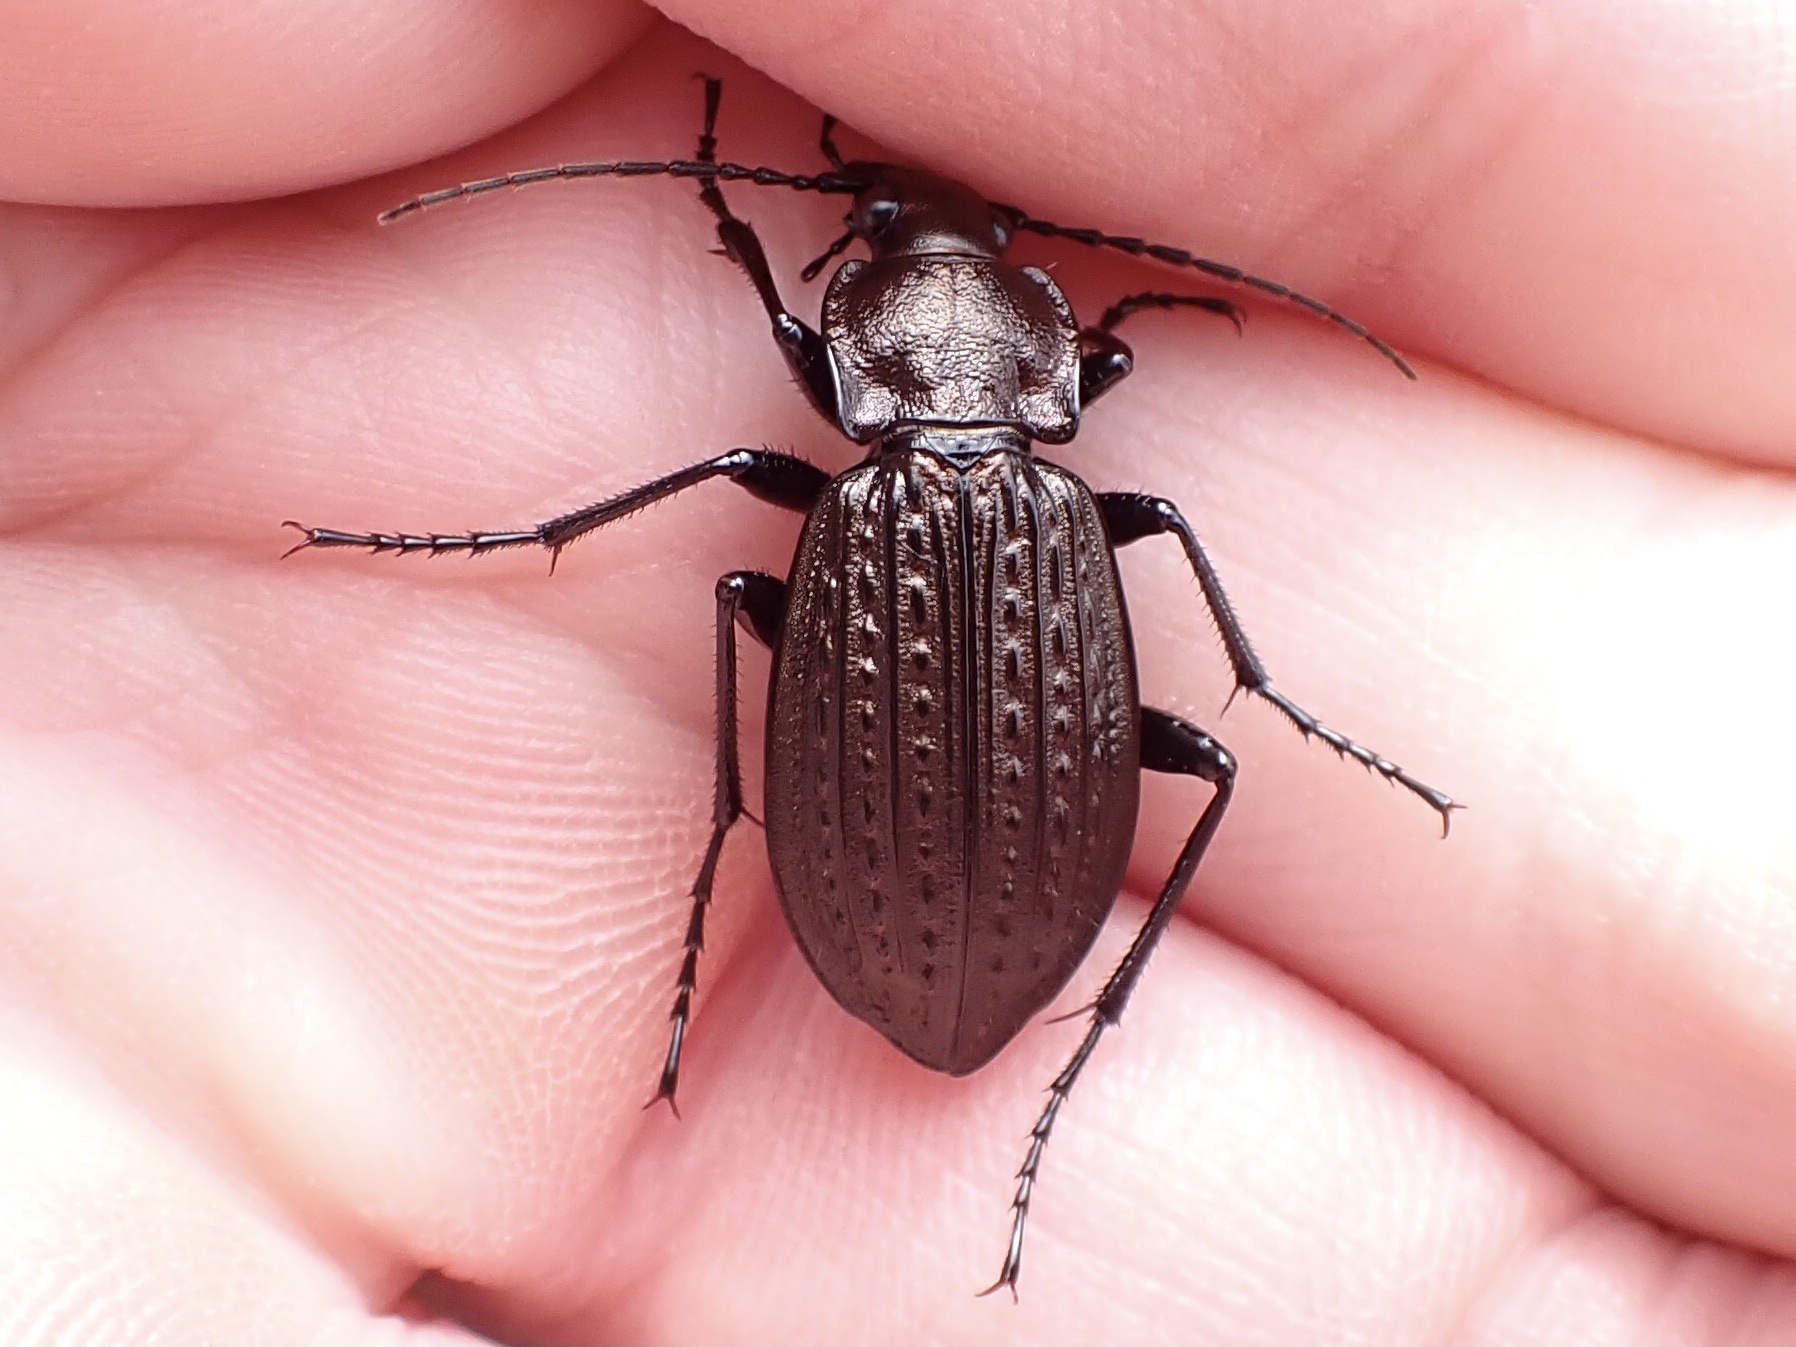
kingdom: Animalia
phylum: Arthropoda
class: Insecta
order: Coleoptera
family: Carabidae
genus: Carabus
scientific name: Carabus granulatus
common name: Granulate ground beetle
